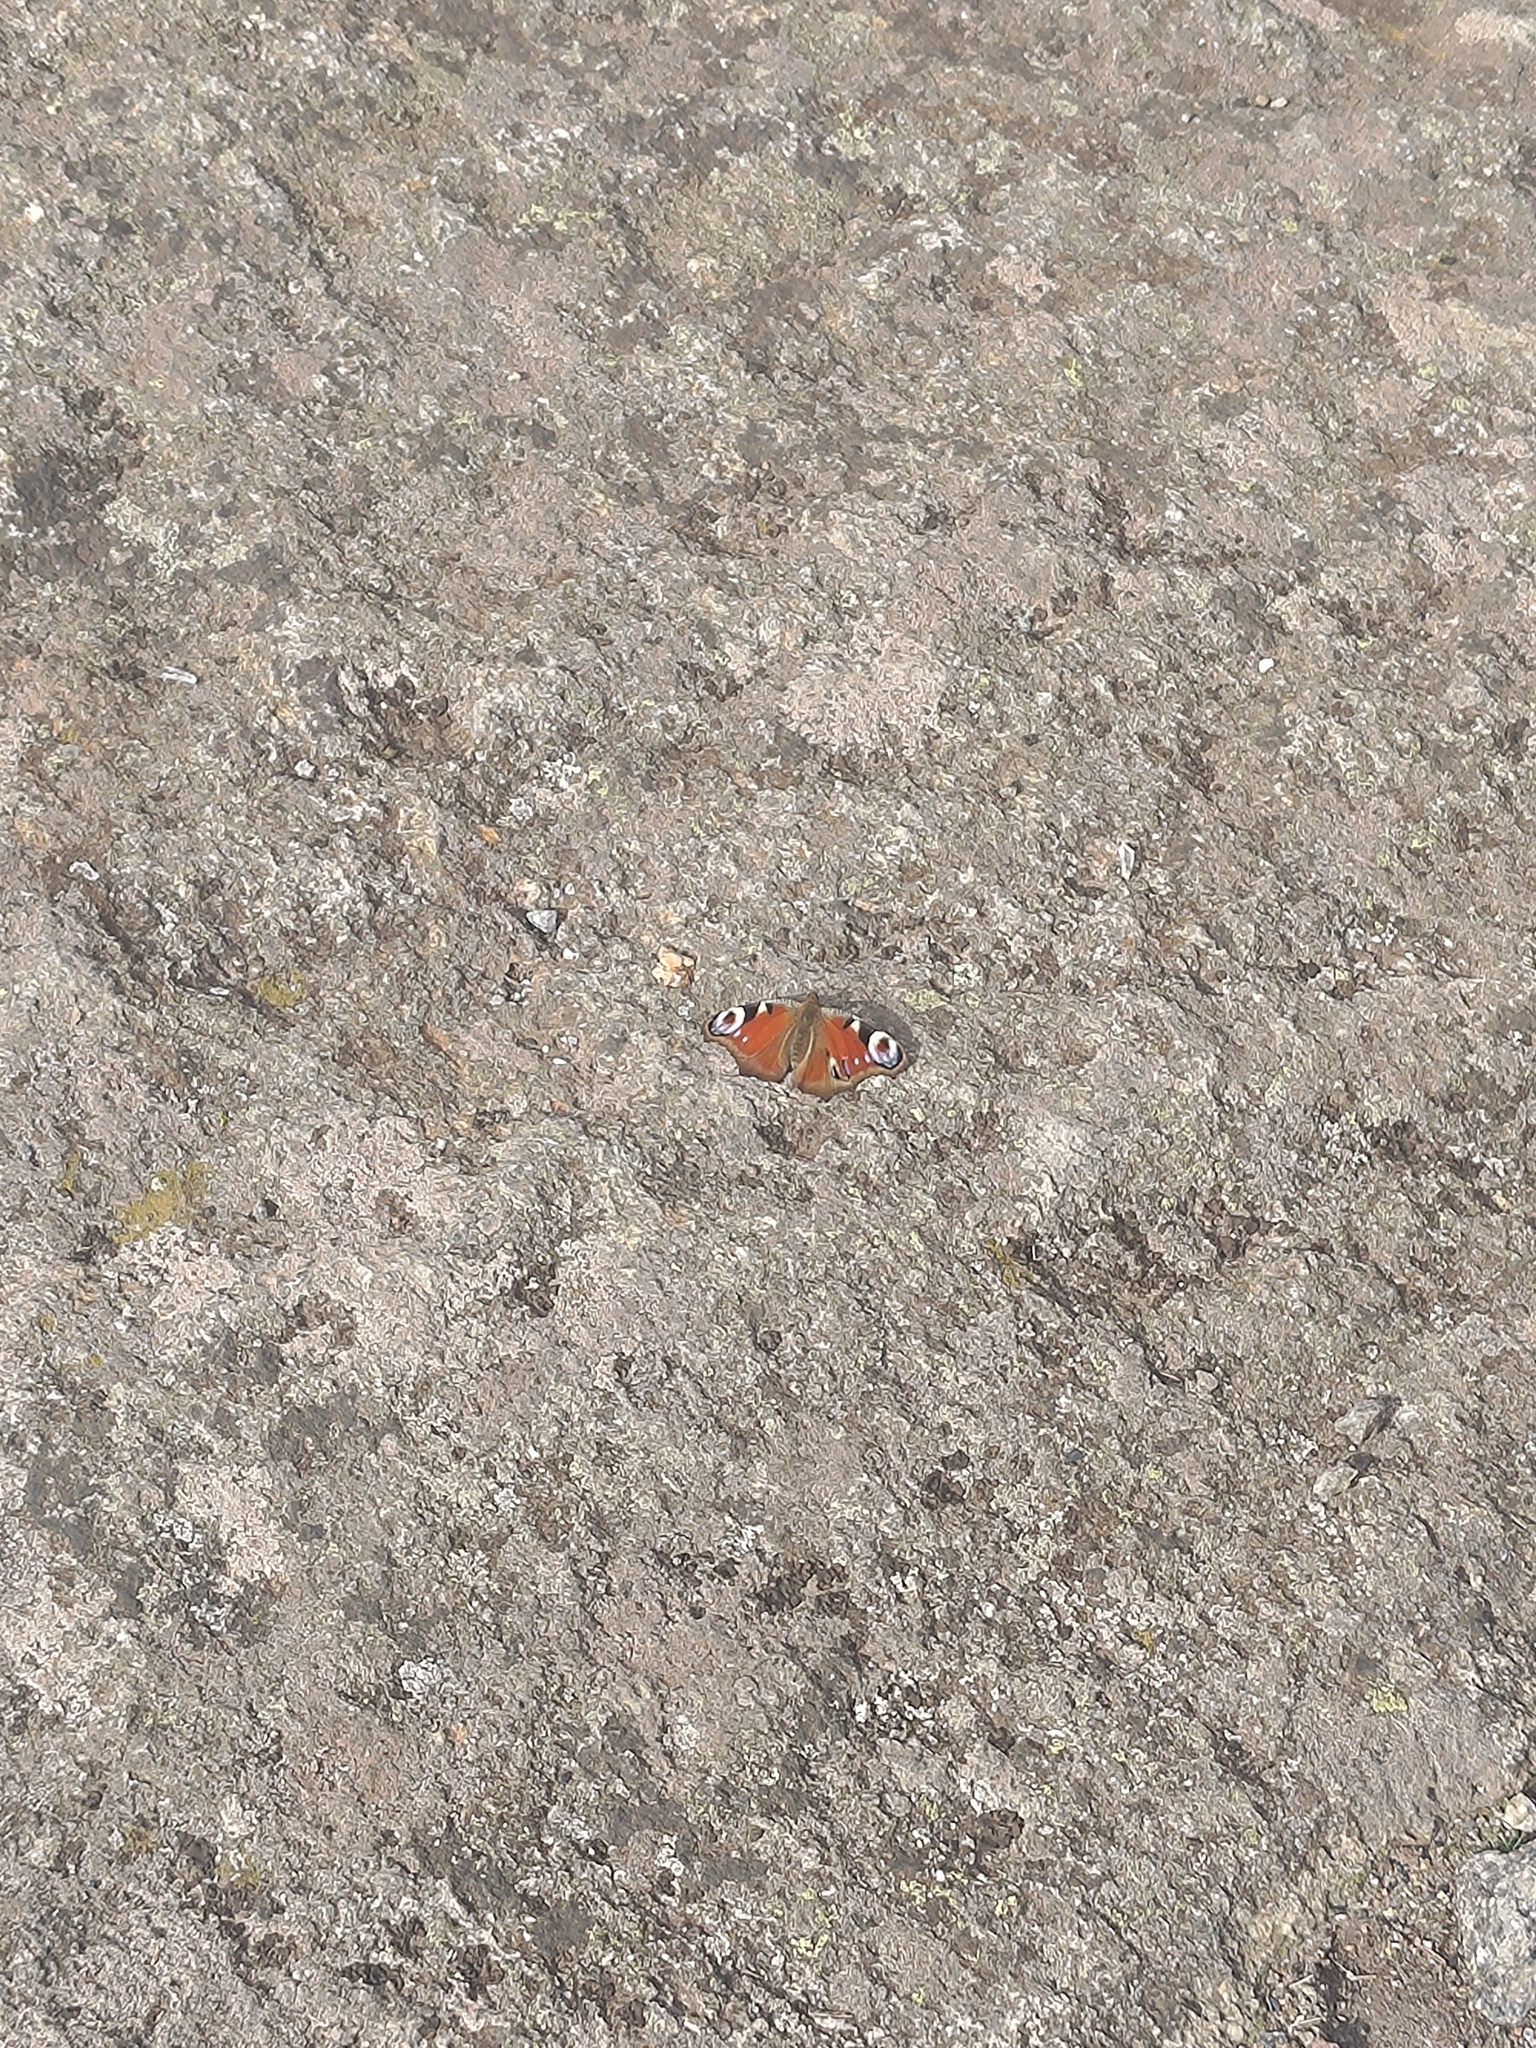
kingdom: Animalia
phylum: Arthropoda
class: Insecta
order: Lepidoptera
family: Nymphalidae
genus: Aglais
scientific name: Aglais io
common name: Peacock
